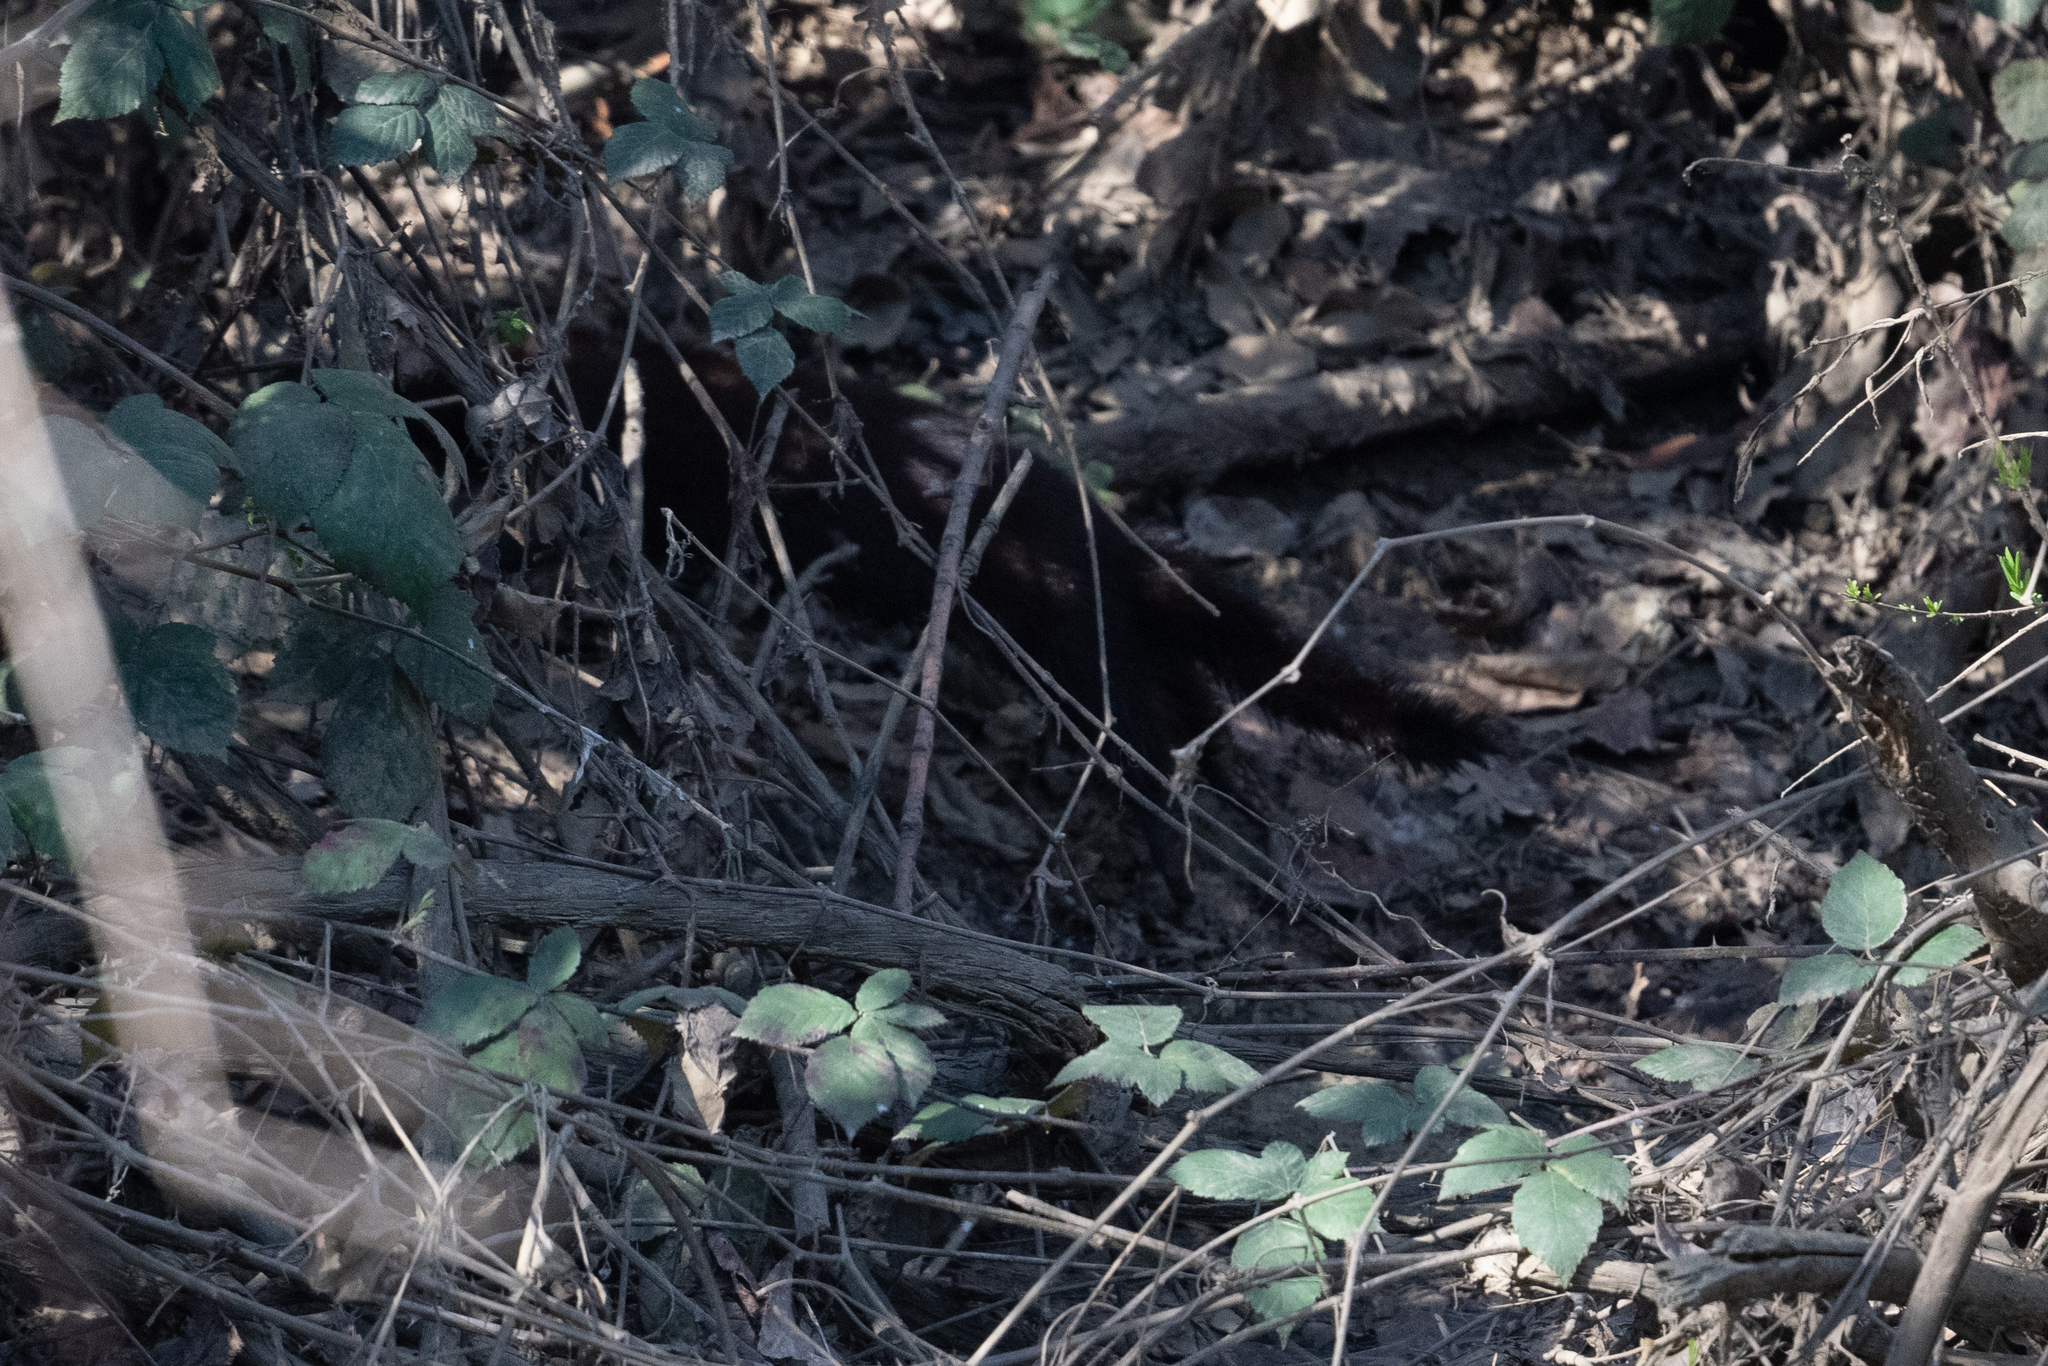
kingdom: Animalia
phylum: Chordata
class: Mammalia
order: Carnivora
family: Mustelidae
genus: Mustela
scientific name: Mustela
